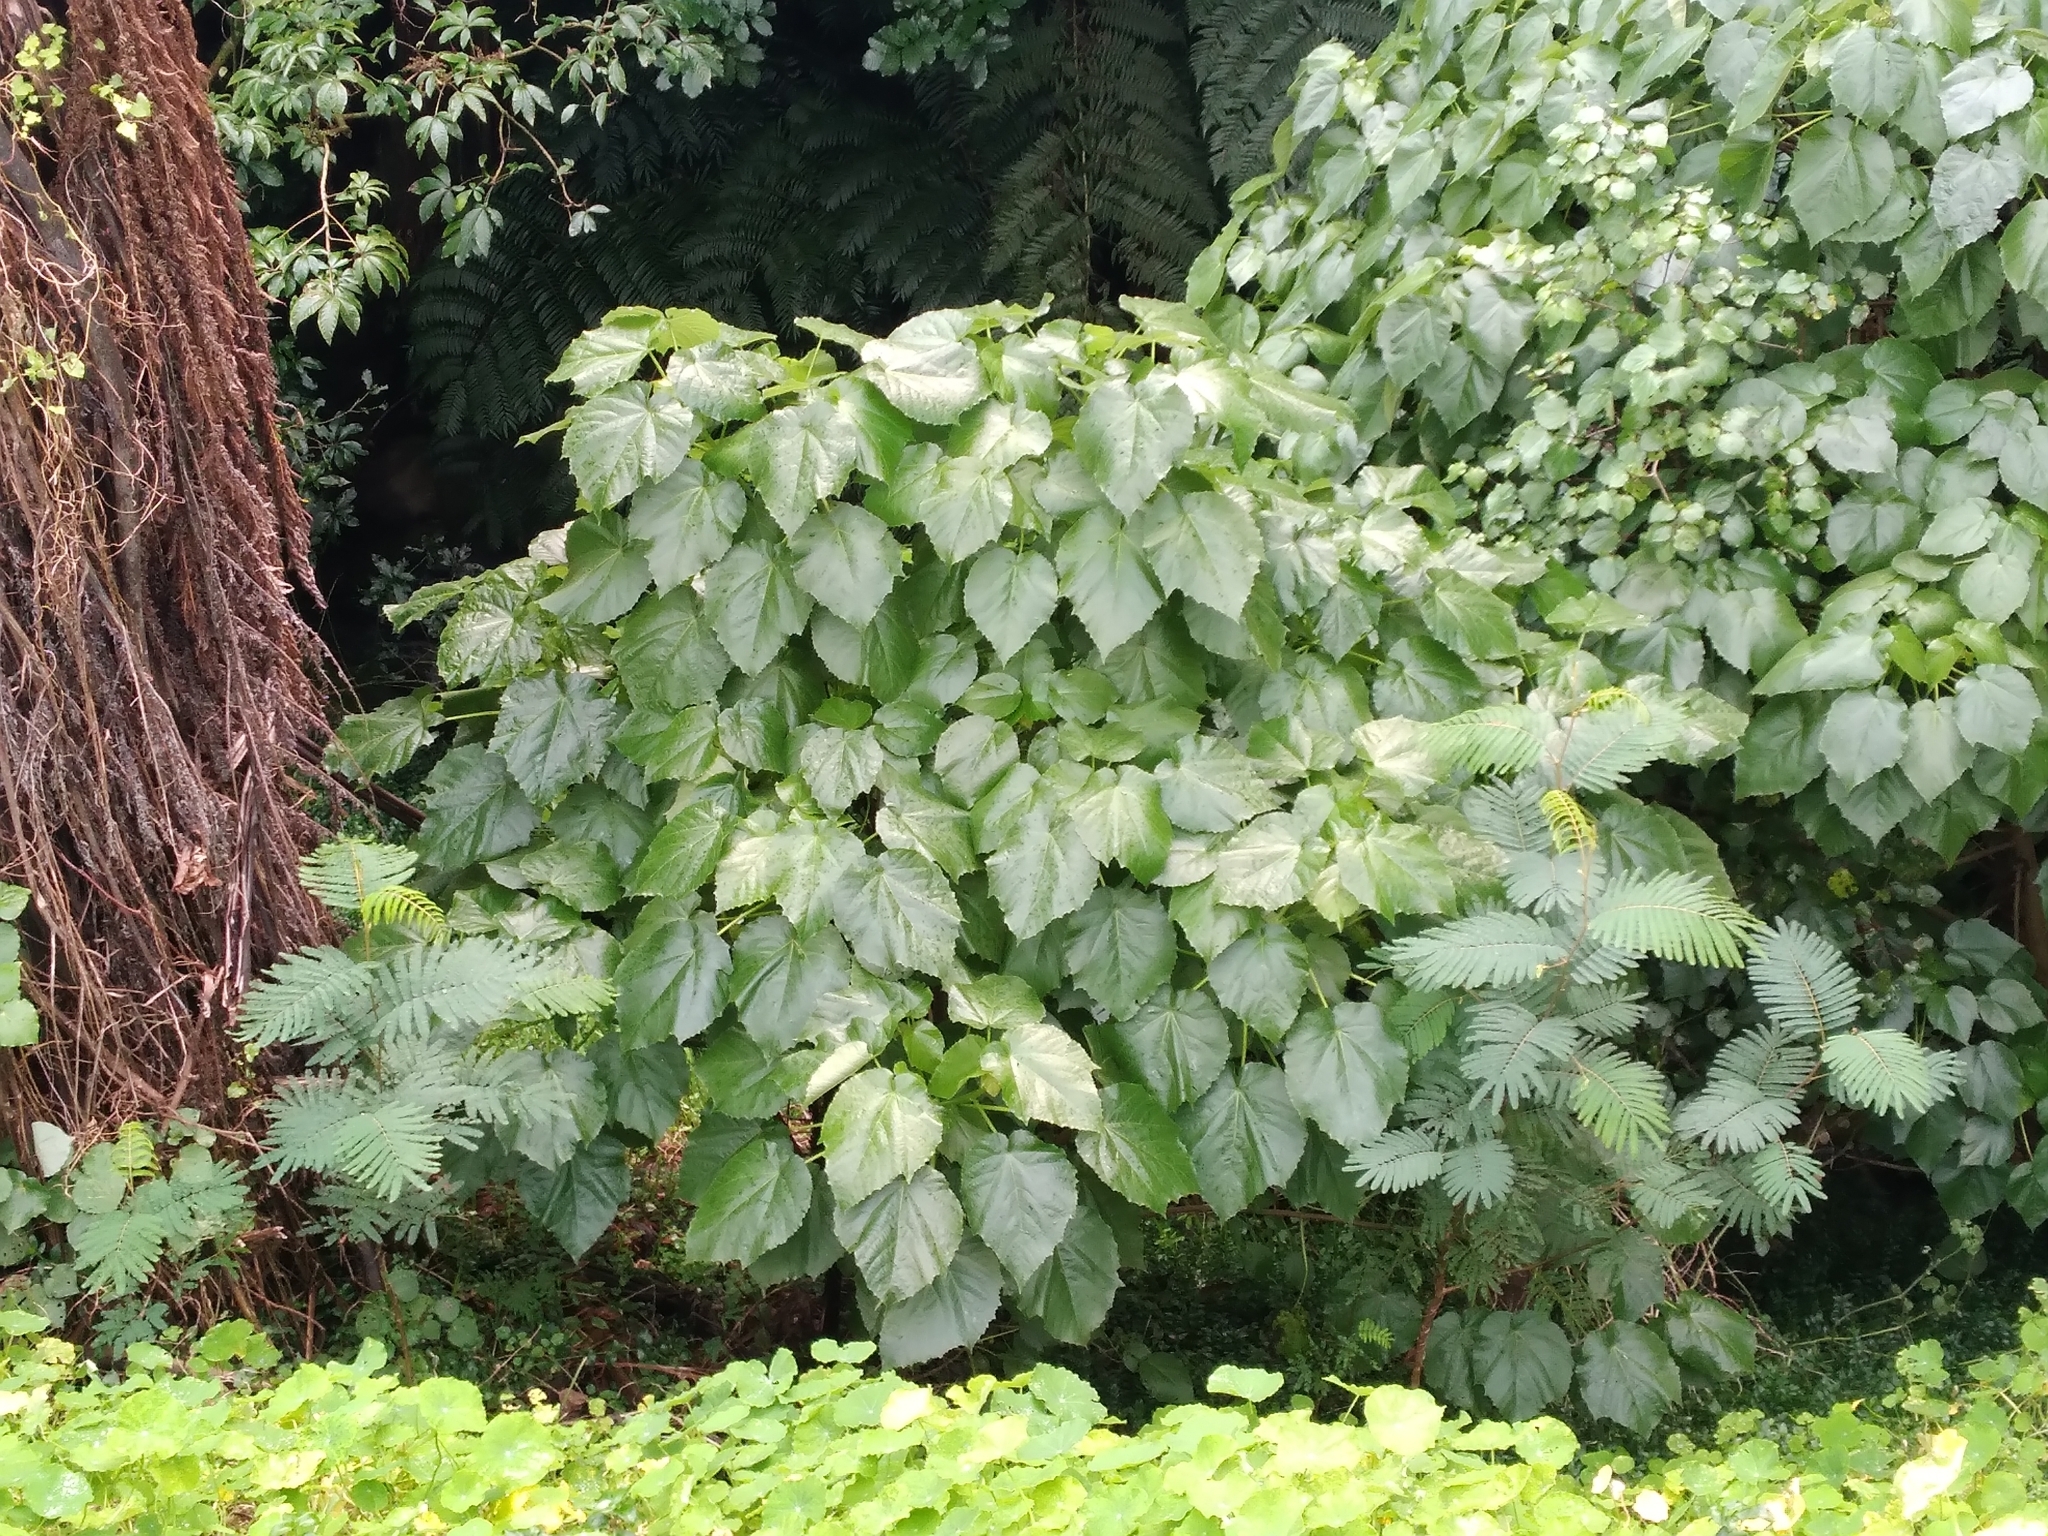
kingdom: Plantae
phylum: Tracheophyta
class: Magnoliopsida
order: Malvales
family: Malvaceae
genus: Entelea
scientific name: Entelea arborescens
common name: New zealand-mulberry
